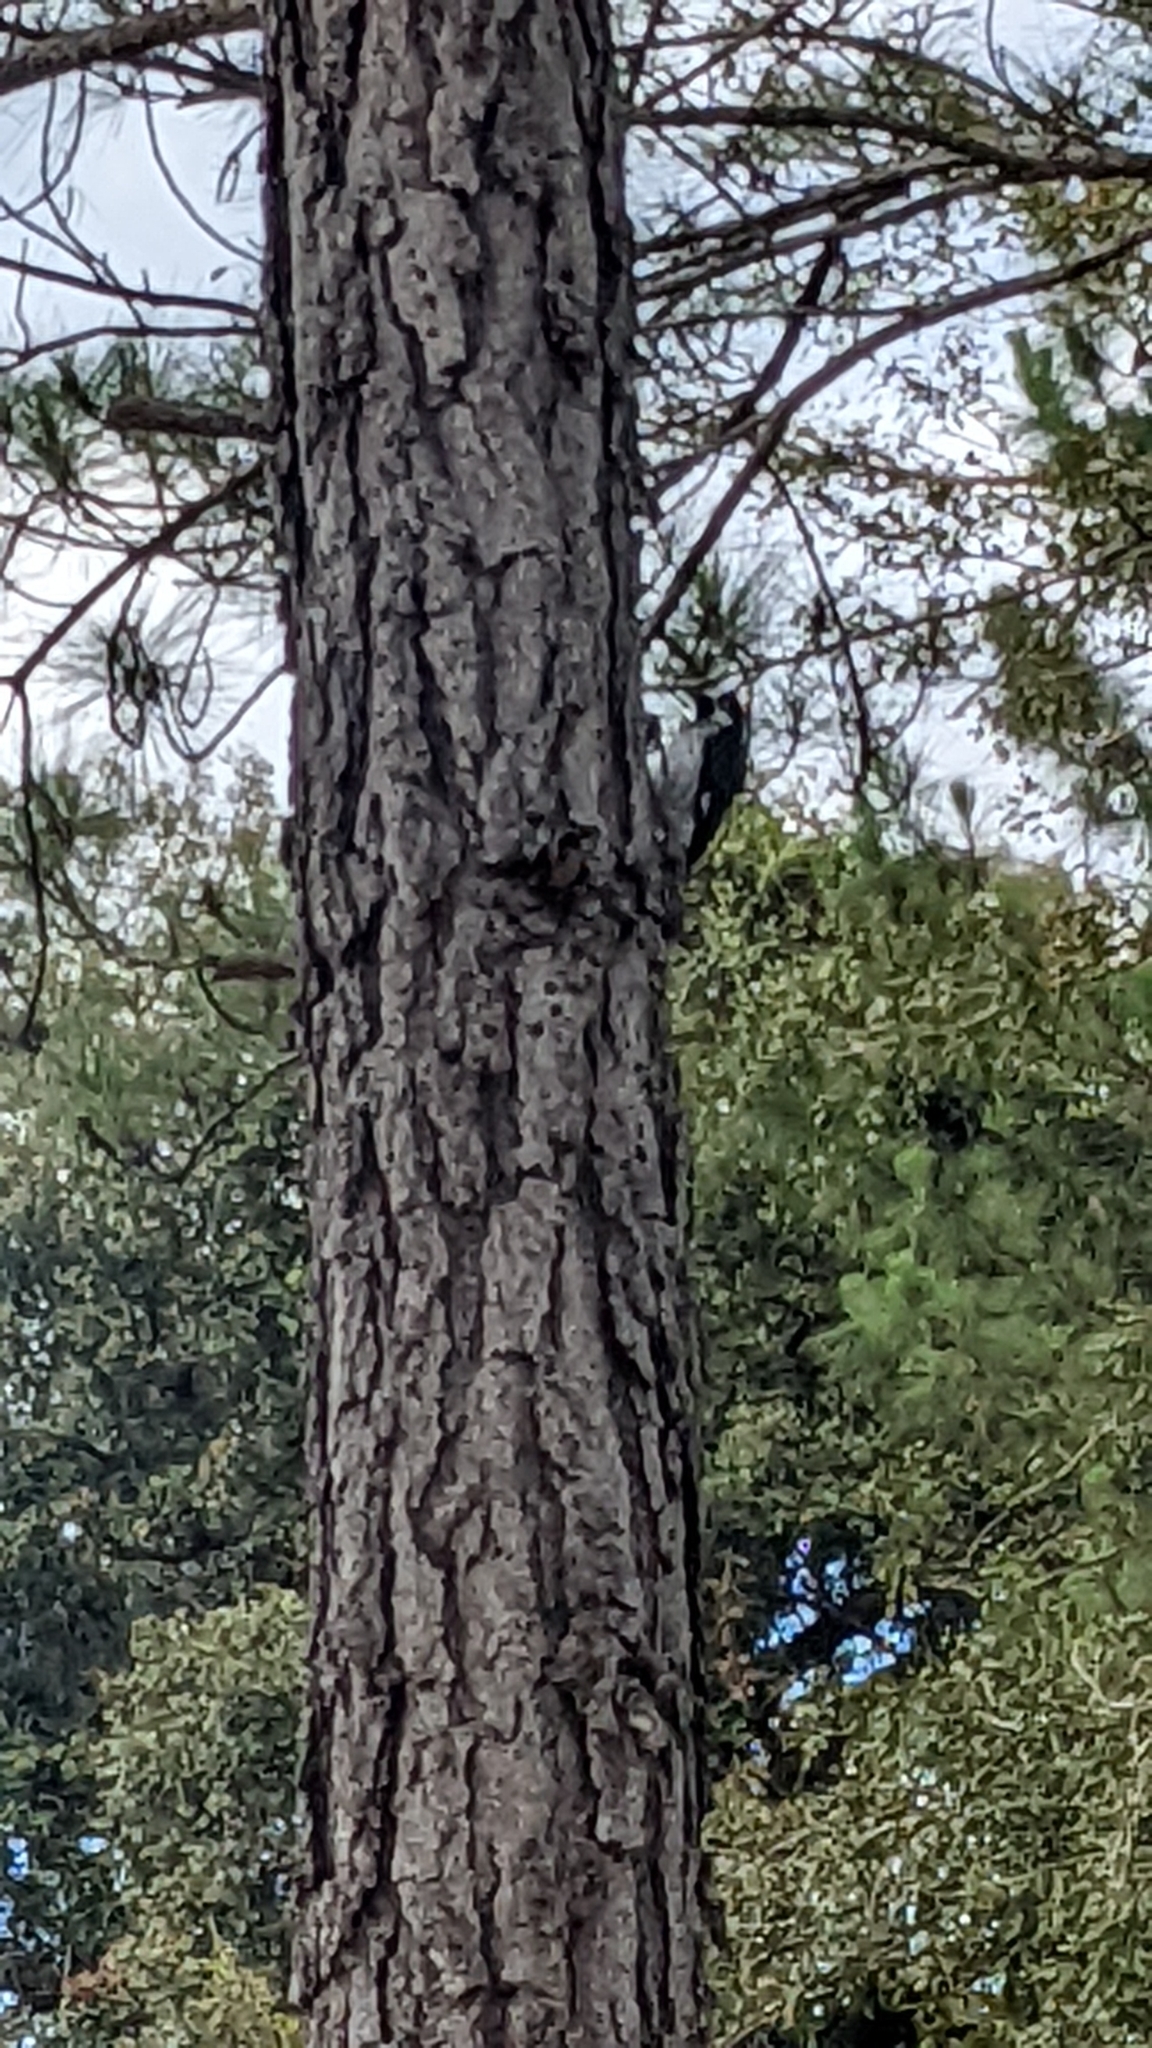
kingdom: Animalia
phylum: Chordata
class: Aves
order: Piciformes
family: Picidae
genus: Melanerpes
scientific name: Melanerpes formicivorus
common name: Acorn woodpecker
